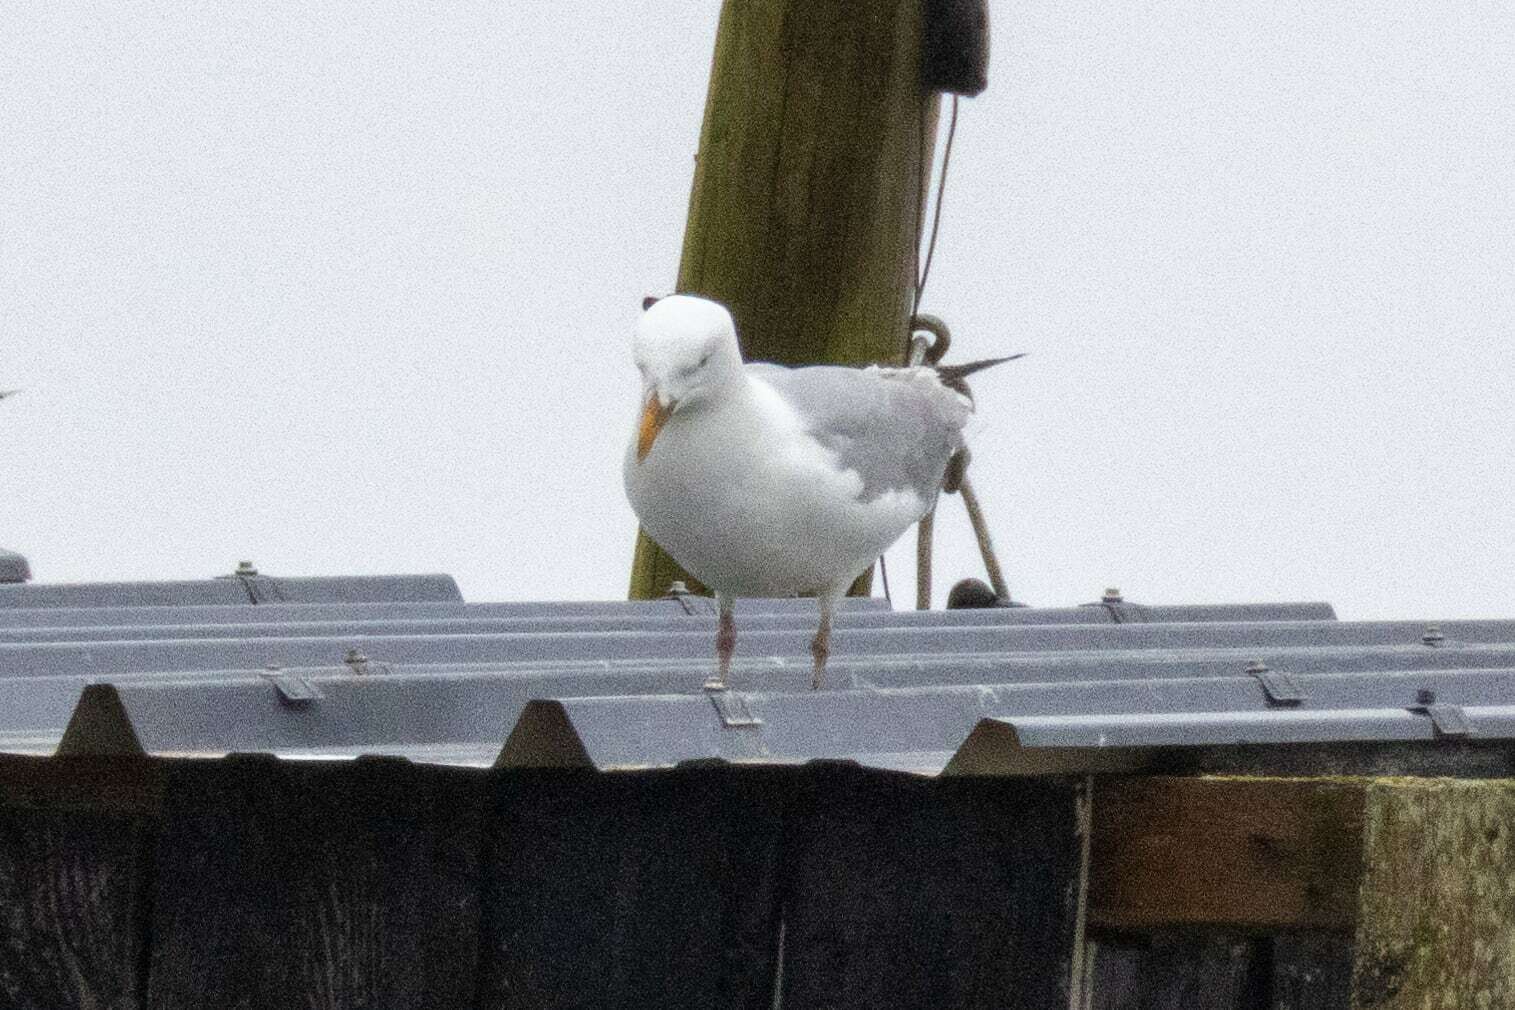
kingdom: Animalia
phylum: Chordata
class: Aves
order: Charadriiformes
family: Laridae
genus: Larus
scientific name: Larus argentatus
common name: Herring gull
